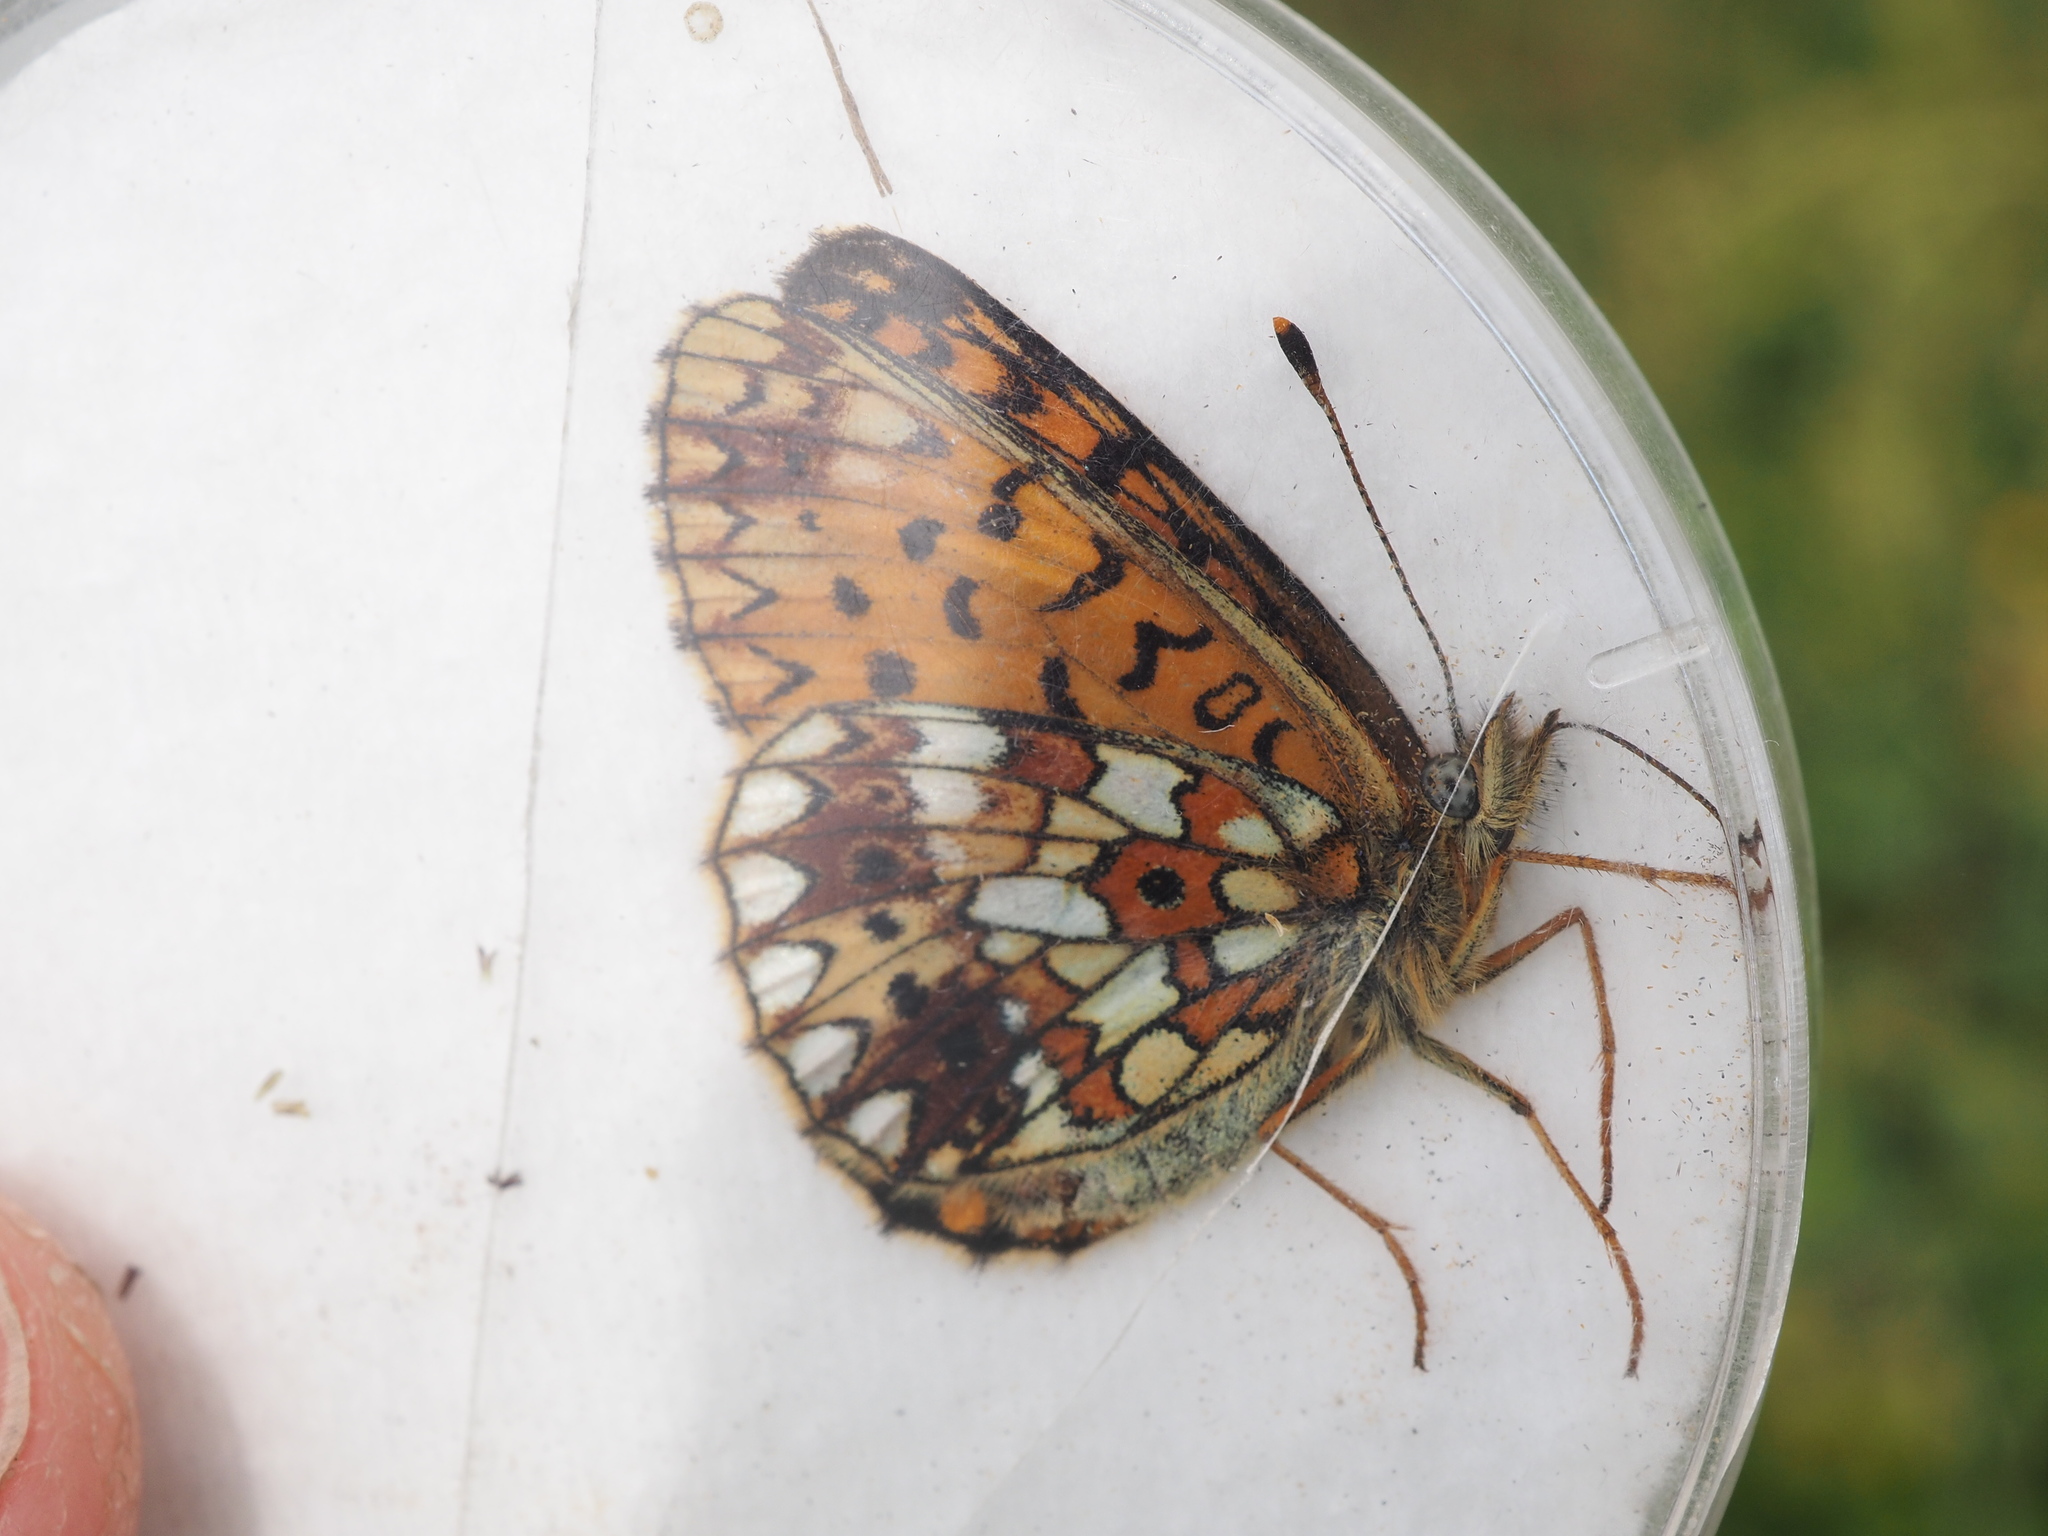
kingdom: Animalia
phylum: Arthropoda
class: Insecta
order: Lepidoptera
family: Nymphalidae
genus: Boloria
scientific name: Boloria selene
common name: Small pearl-bordered fritillary
